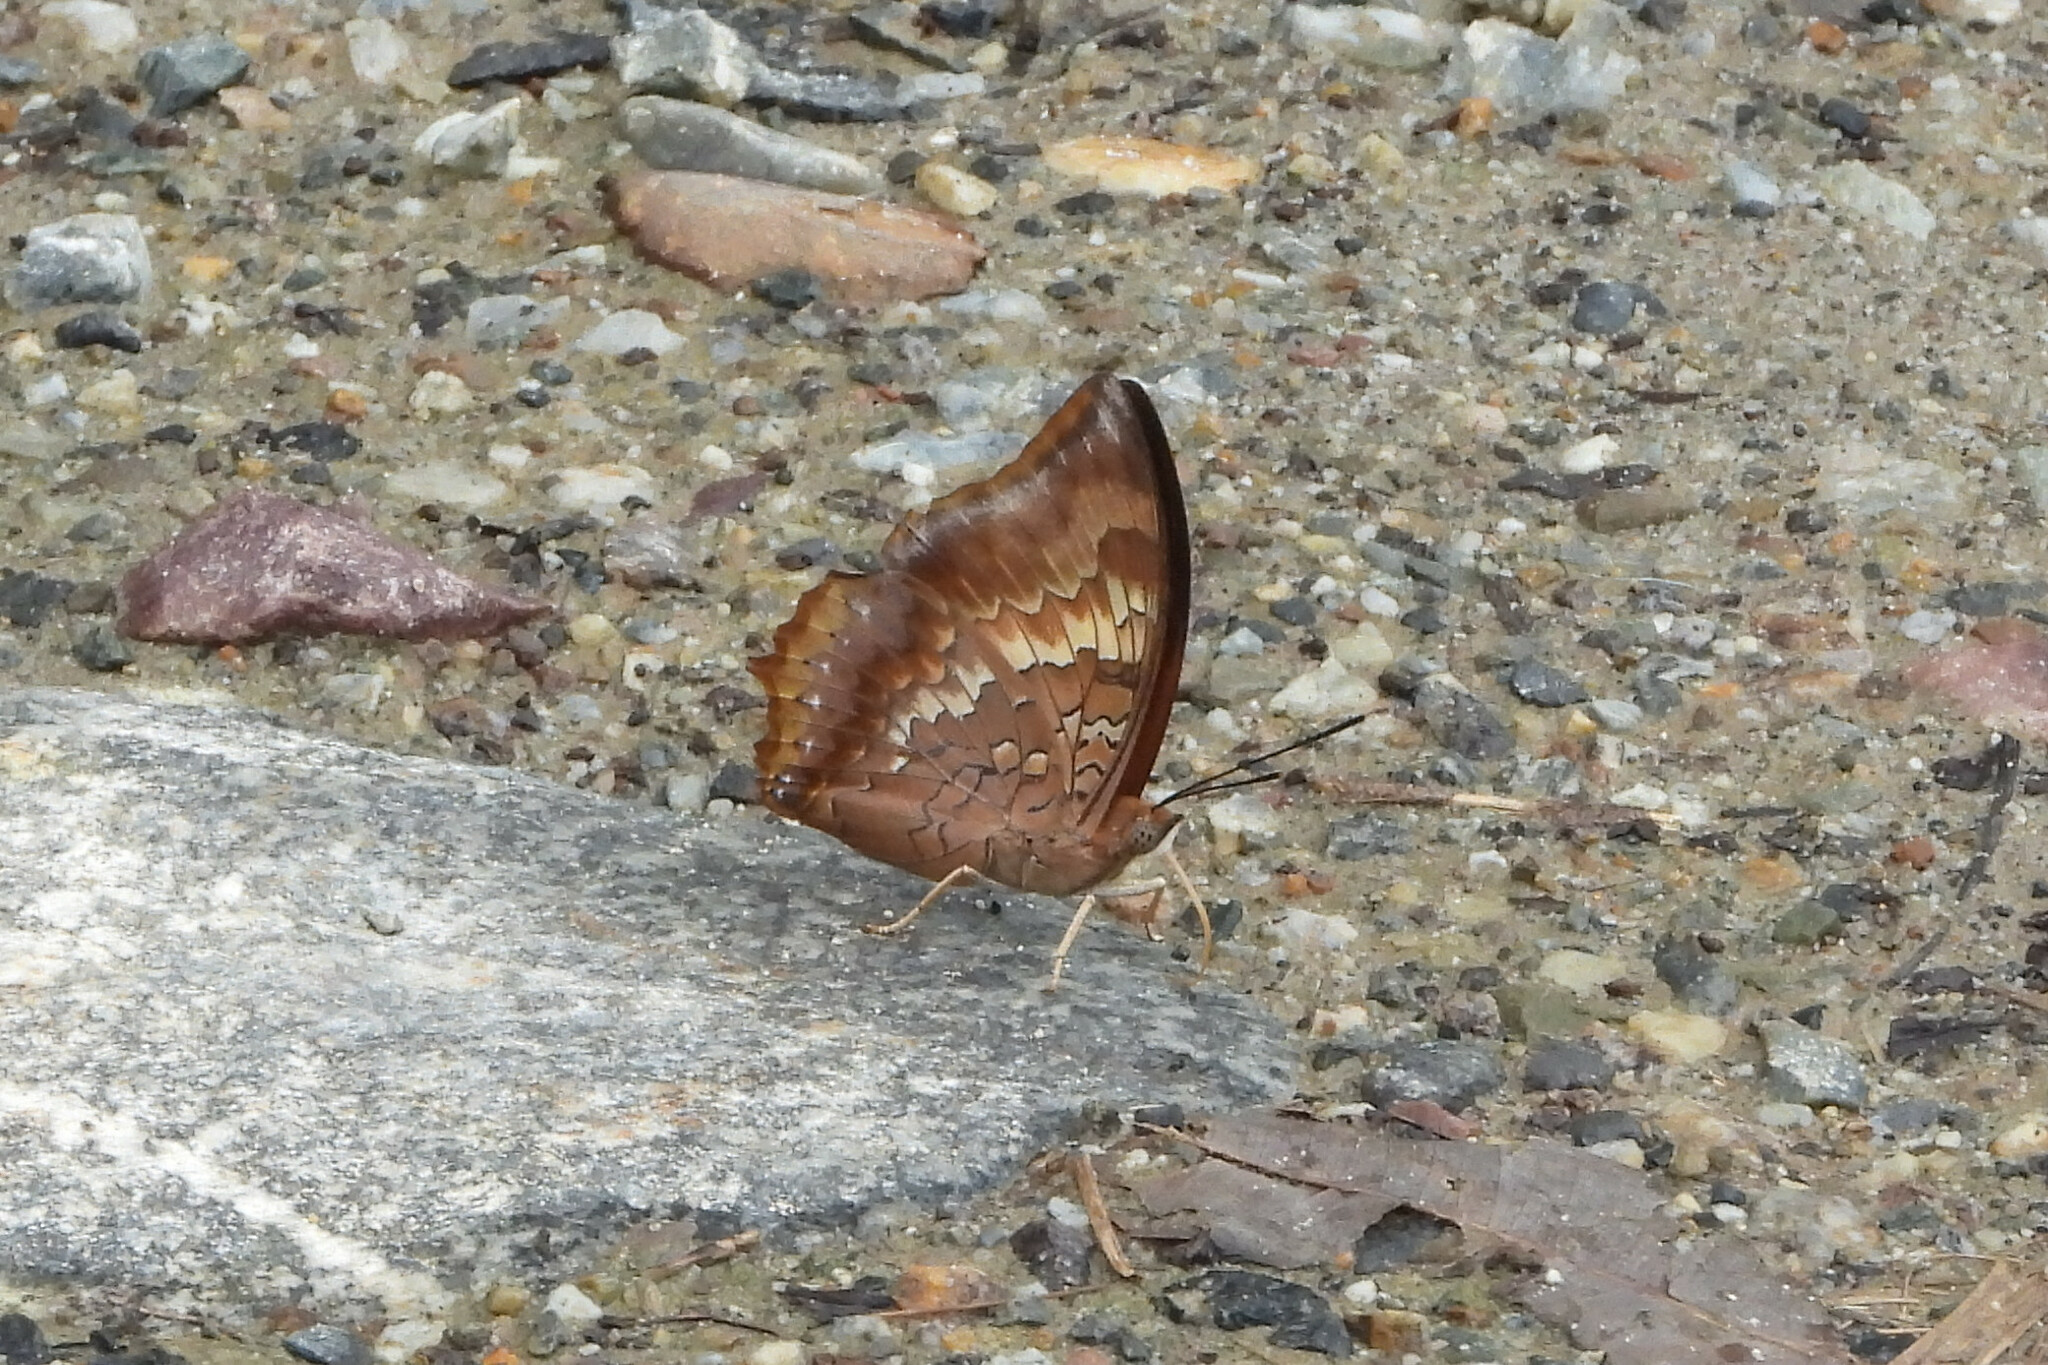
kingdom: Animalia
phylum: Arthropoda
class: Insecta
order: Lepidoptera
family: Nymphalidae
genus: Charaxes
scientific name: Charaxes bernardus
